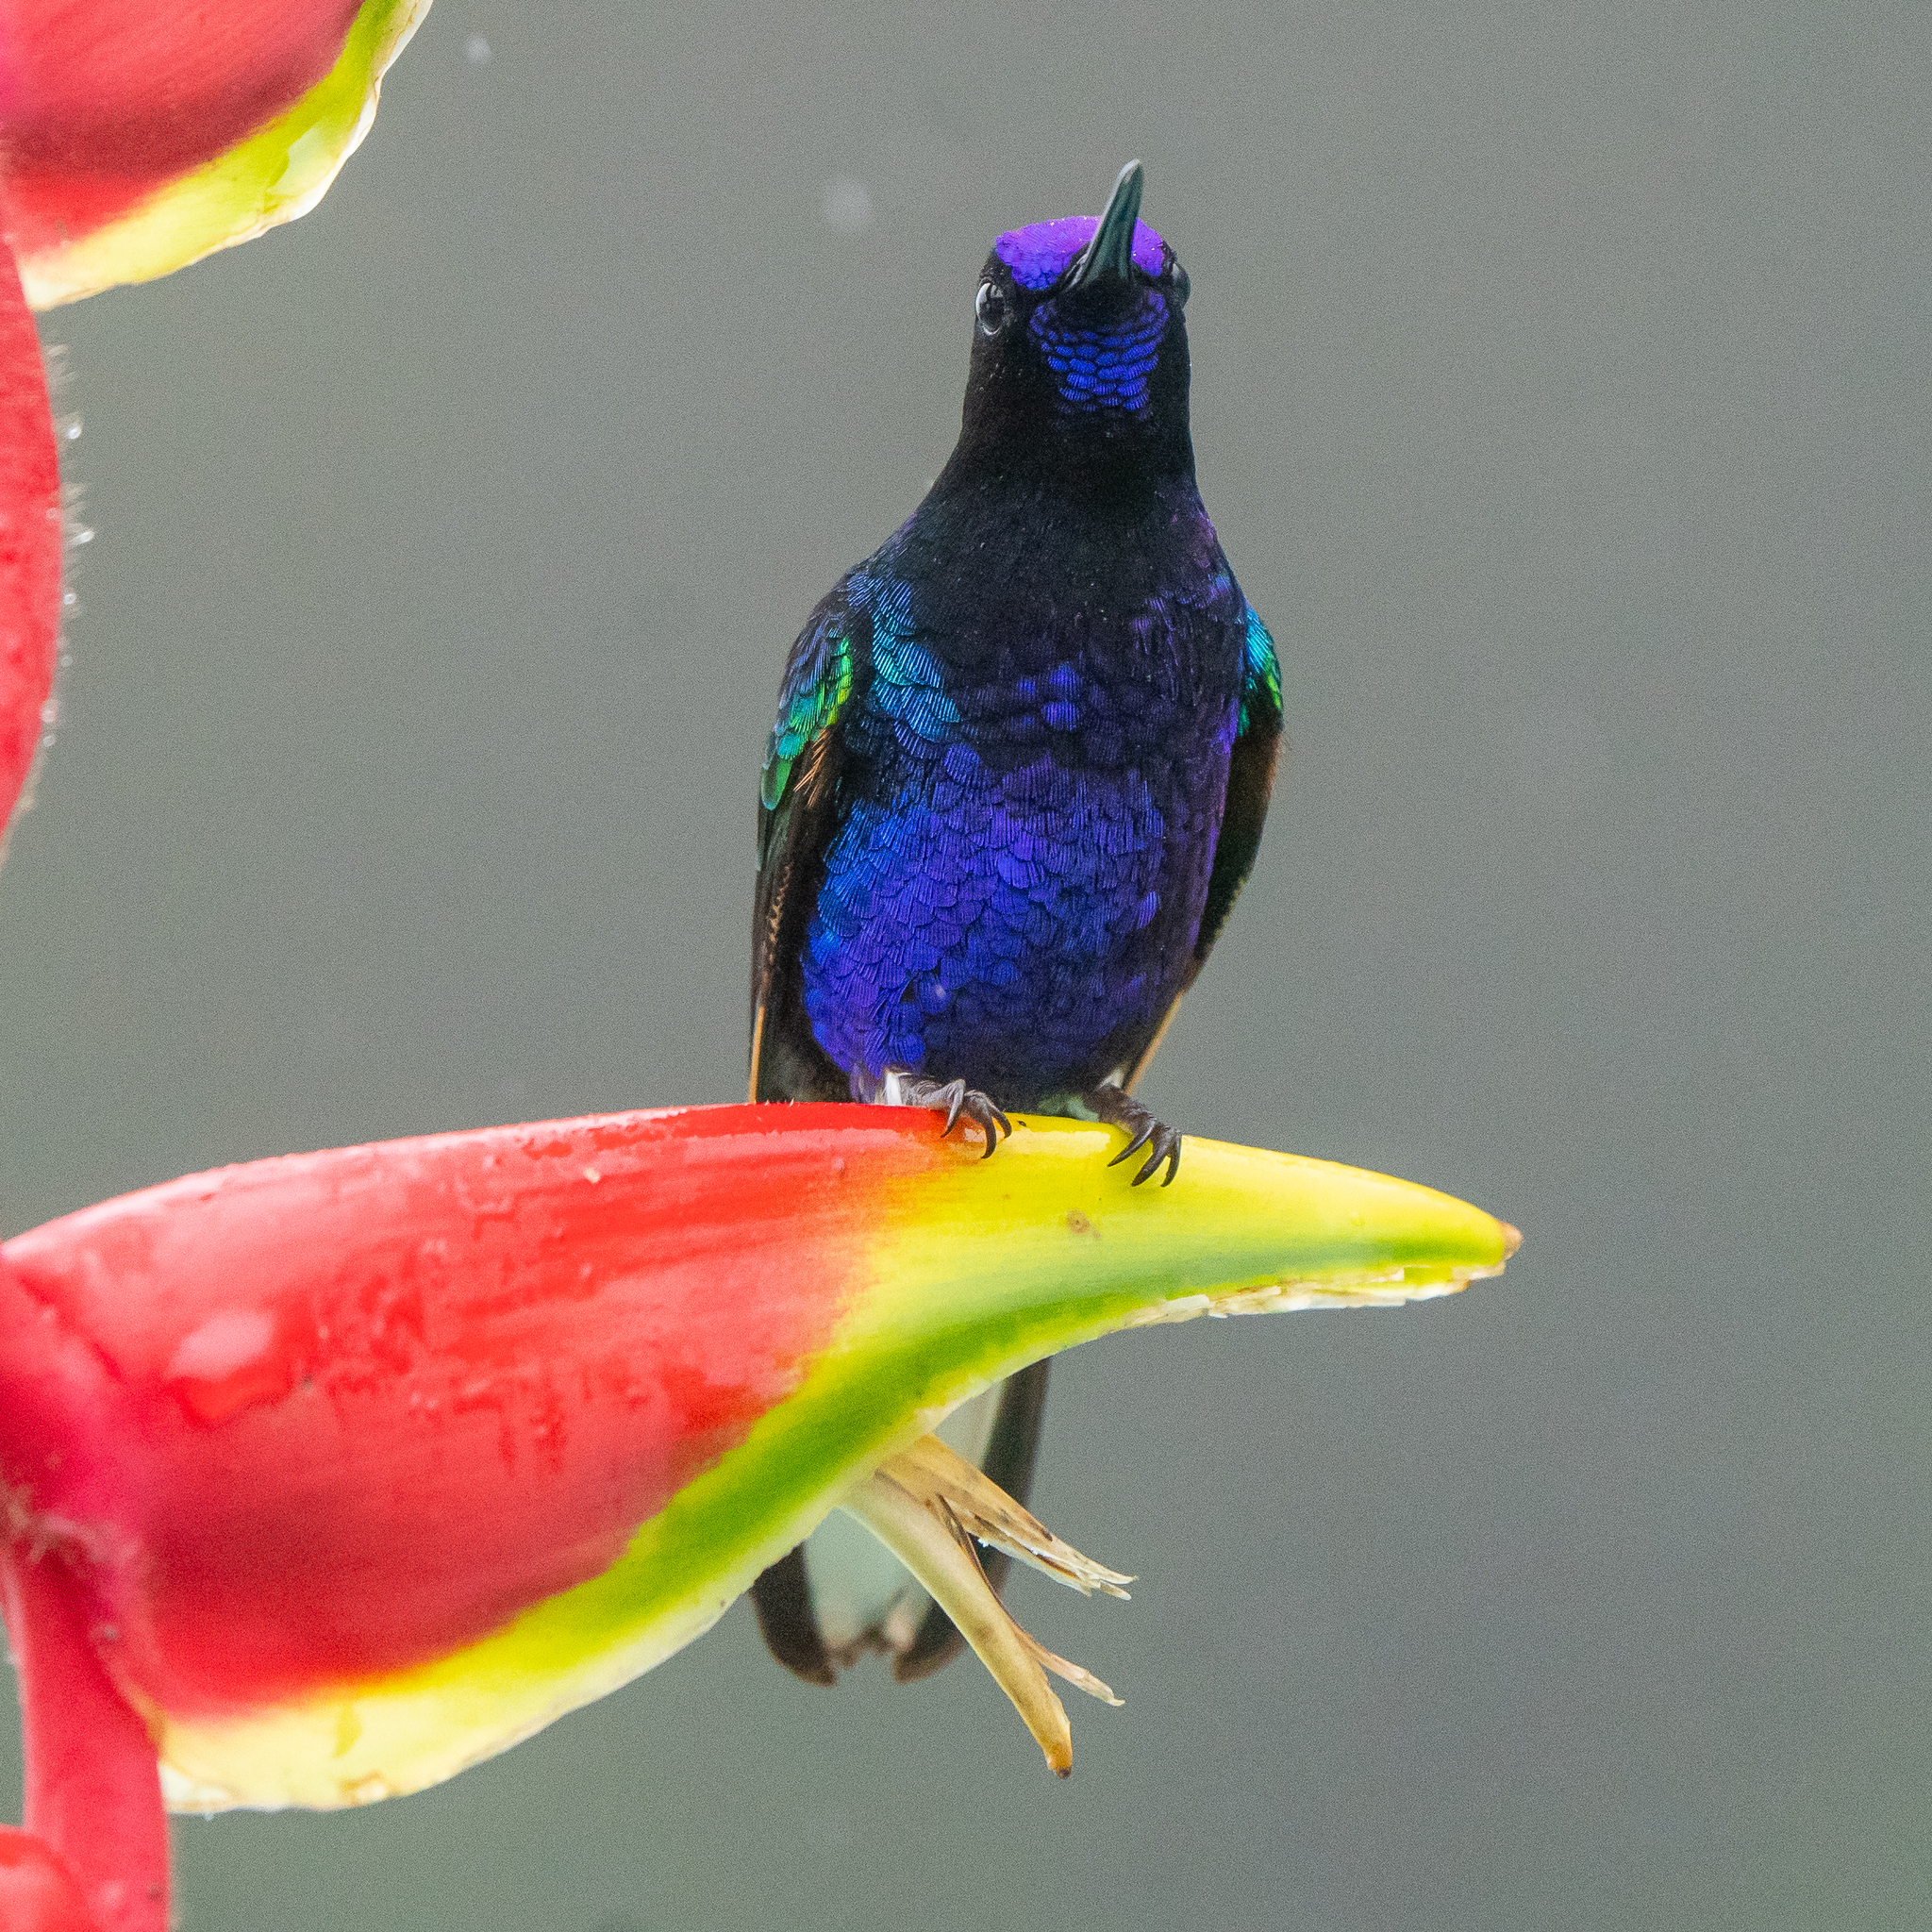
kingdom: Animalia
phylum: Chordata
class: Aves
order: Apodiformes
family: Trochilidae
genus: Boissonneaua
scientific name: Boissonneaua jardini
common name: Velvet-purple coronet
